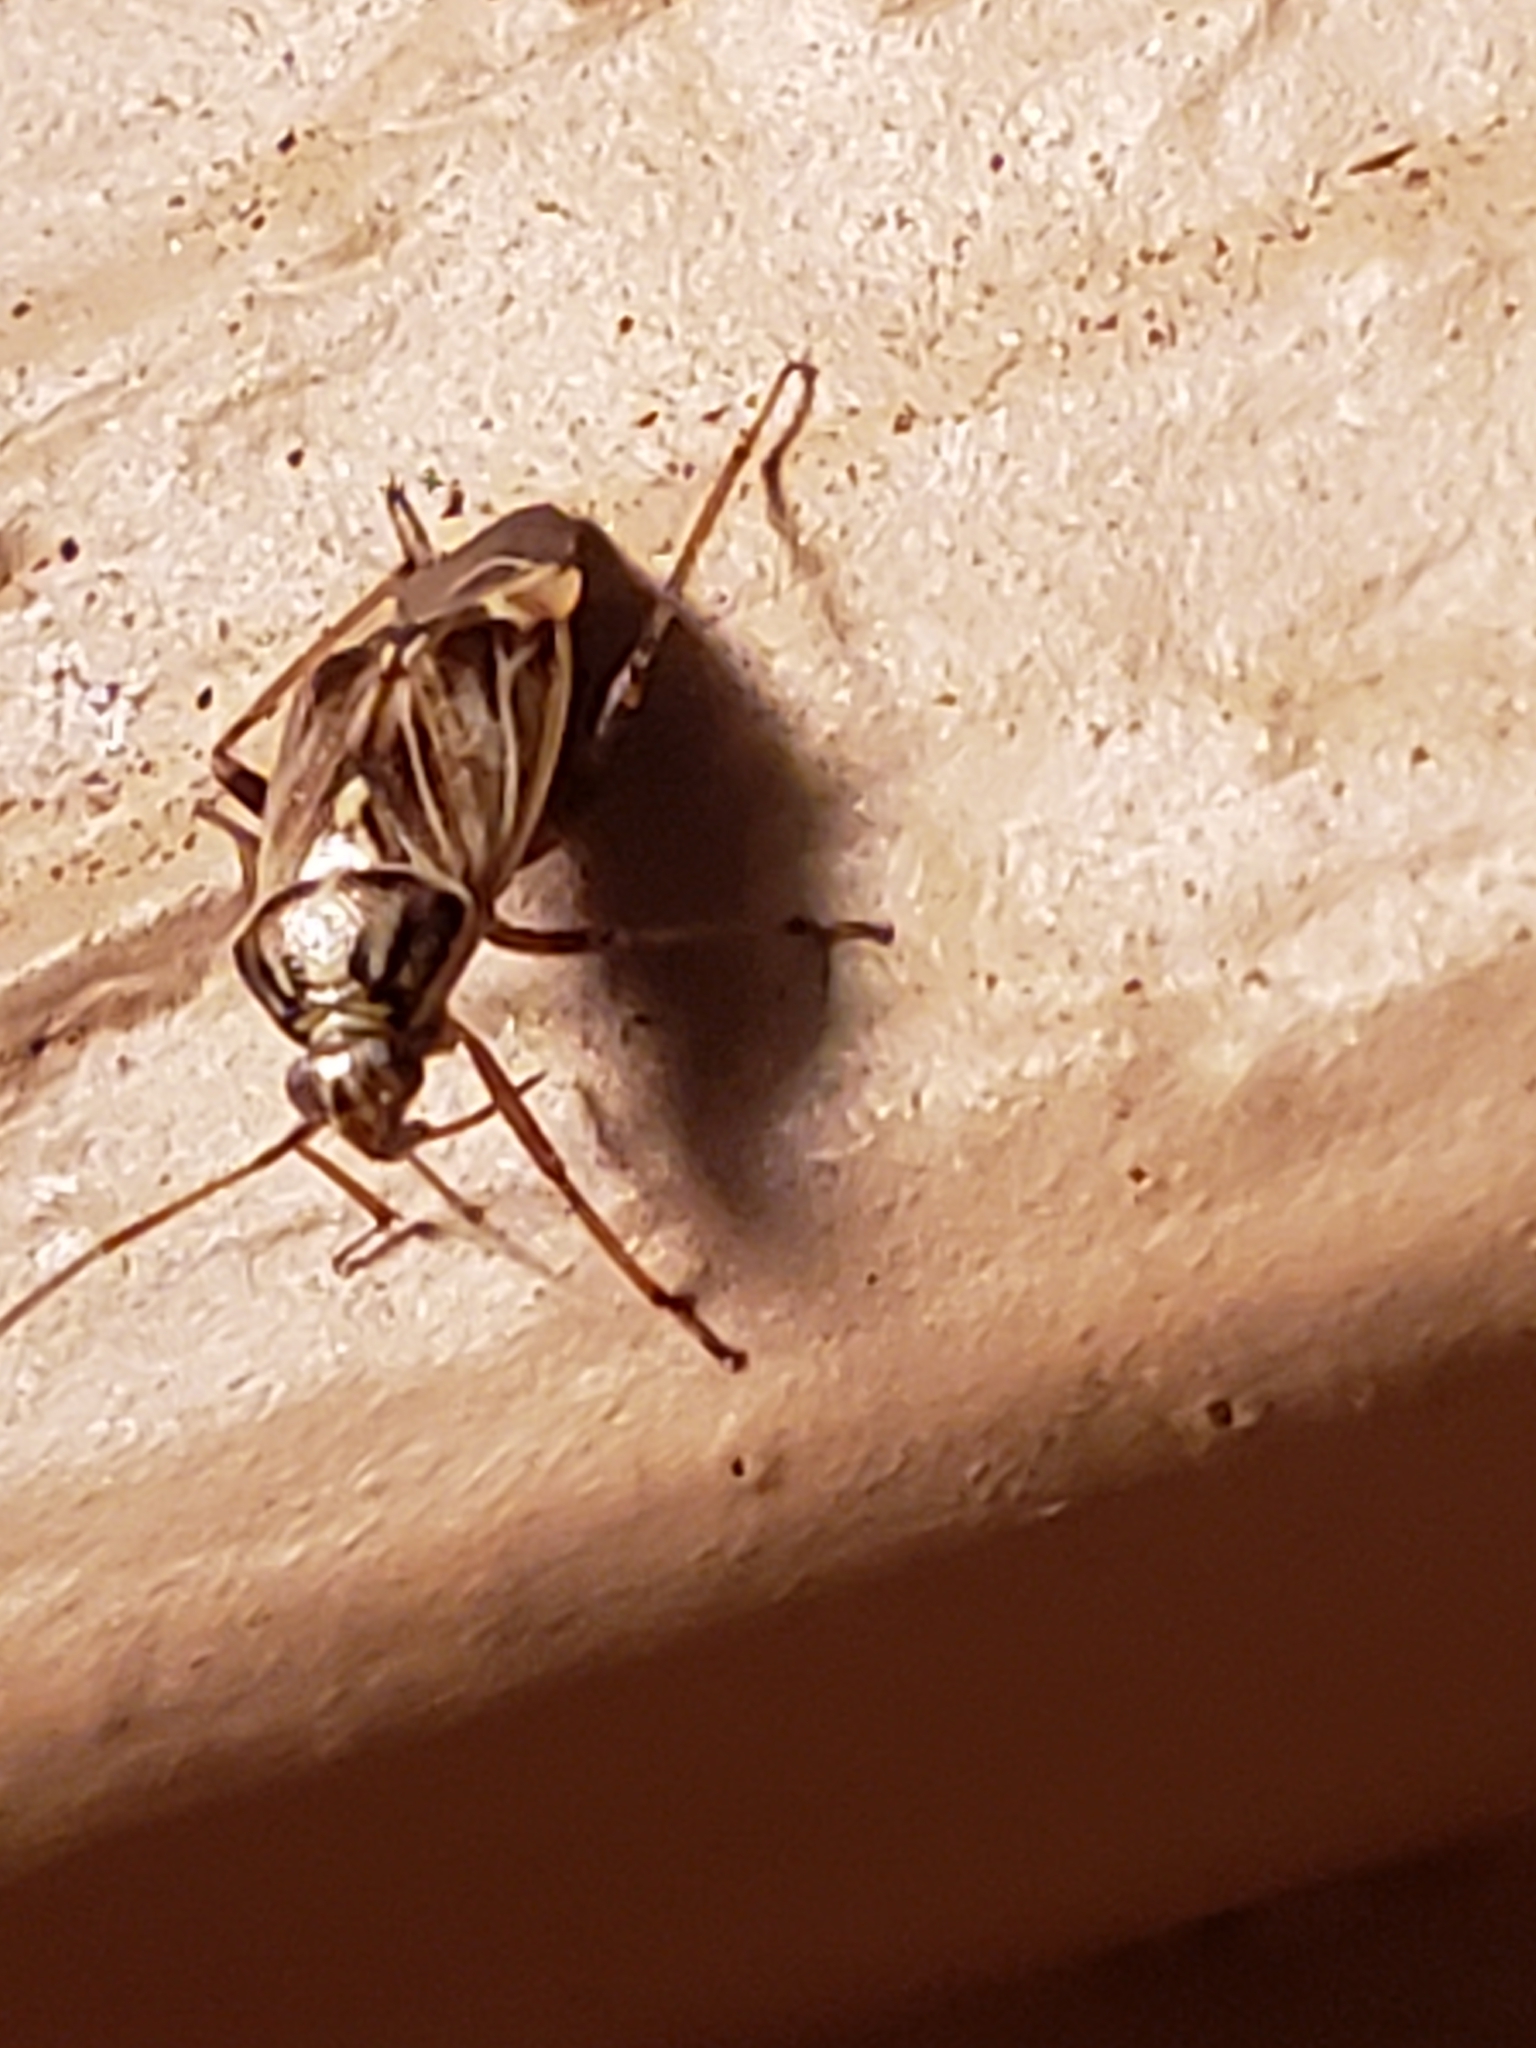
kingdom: Animalia
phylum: Arthropoda
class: Insecta
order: Hemiptera
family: Miridae
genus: Lygus
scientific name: Lygus lineolaris
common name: North american tarnished plant bug
